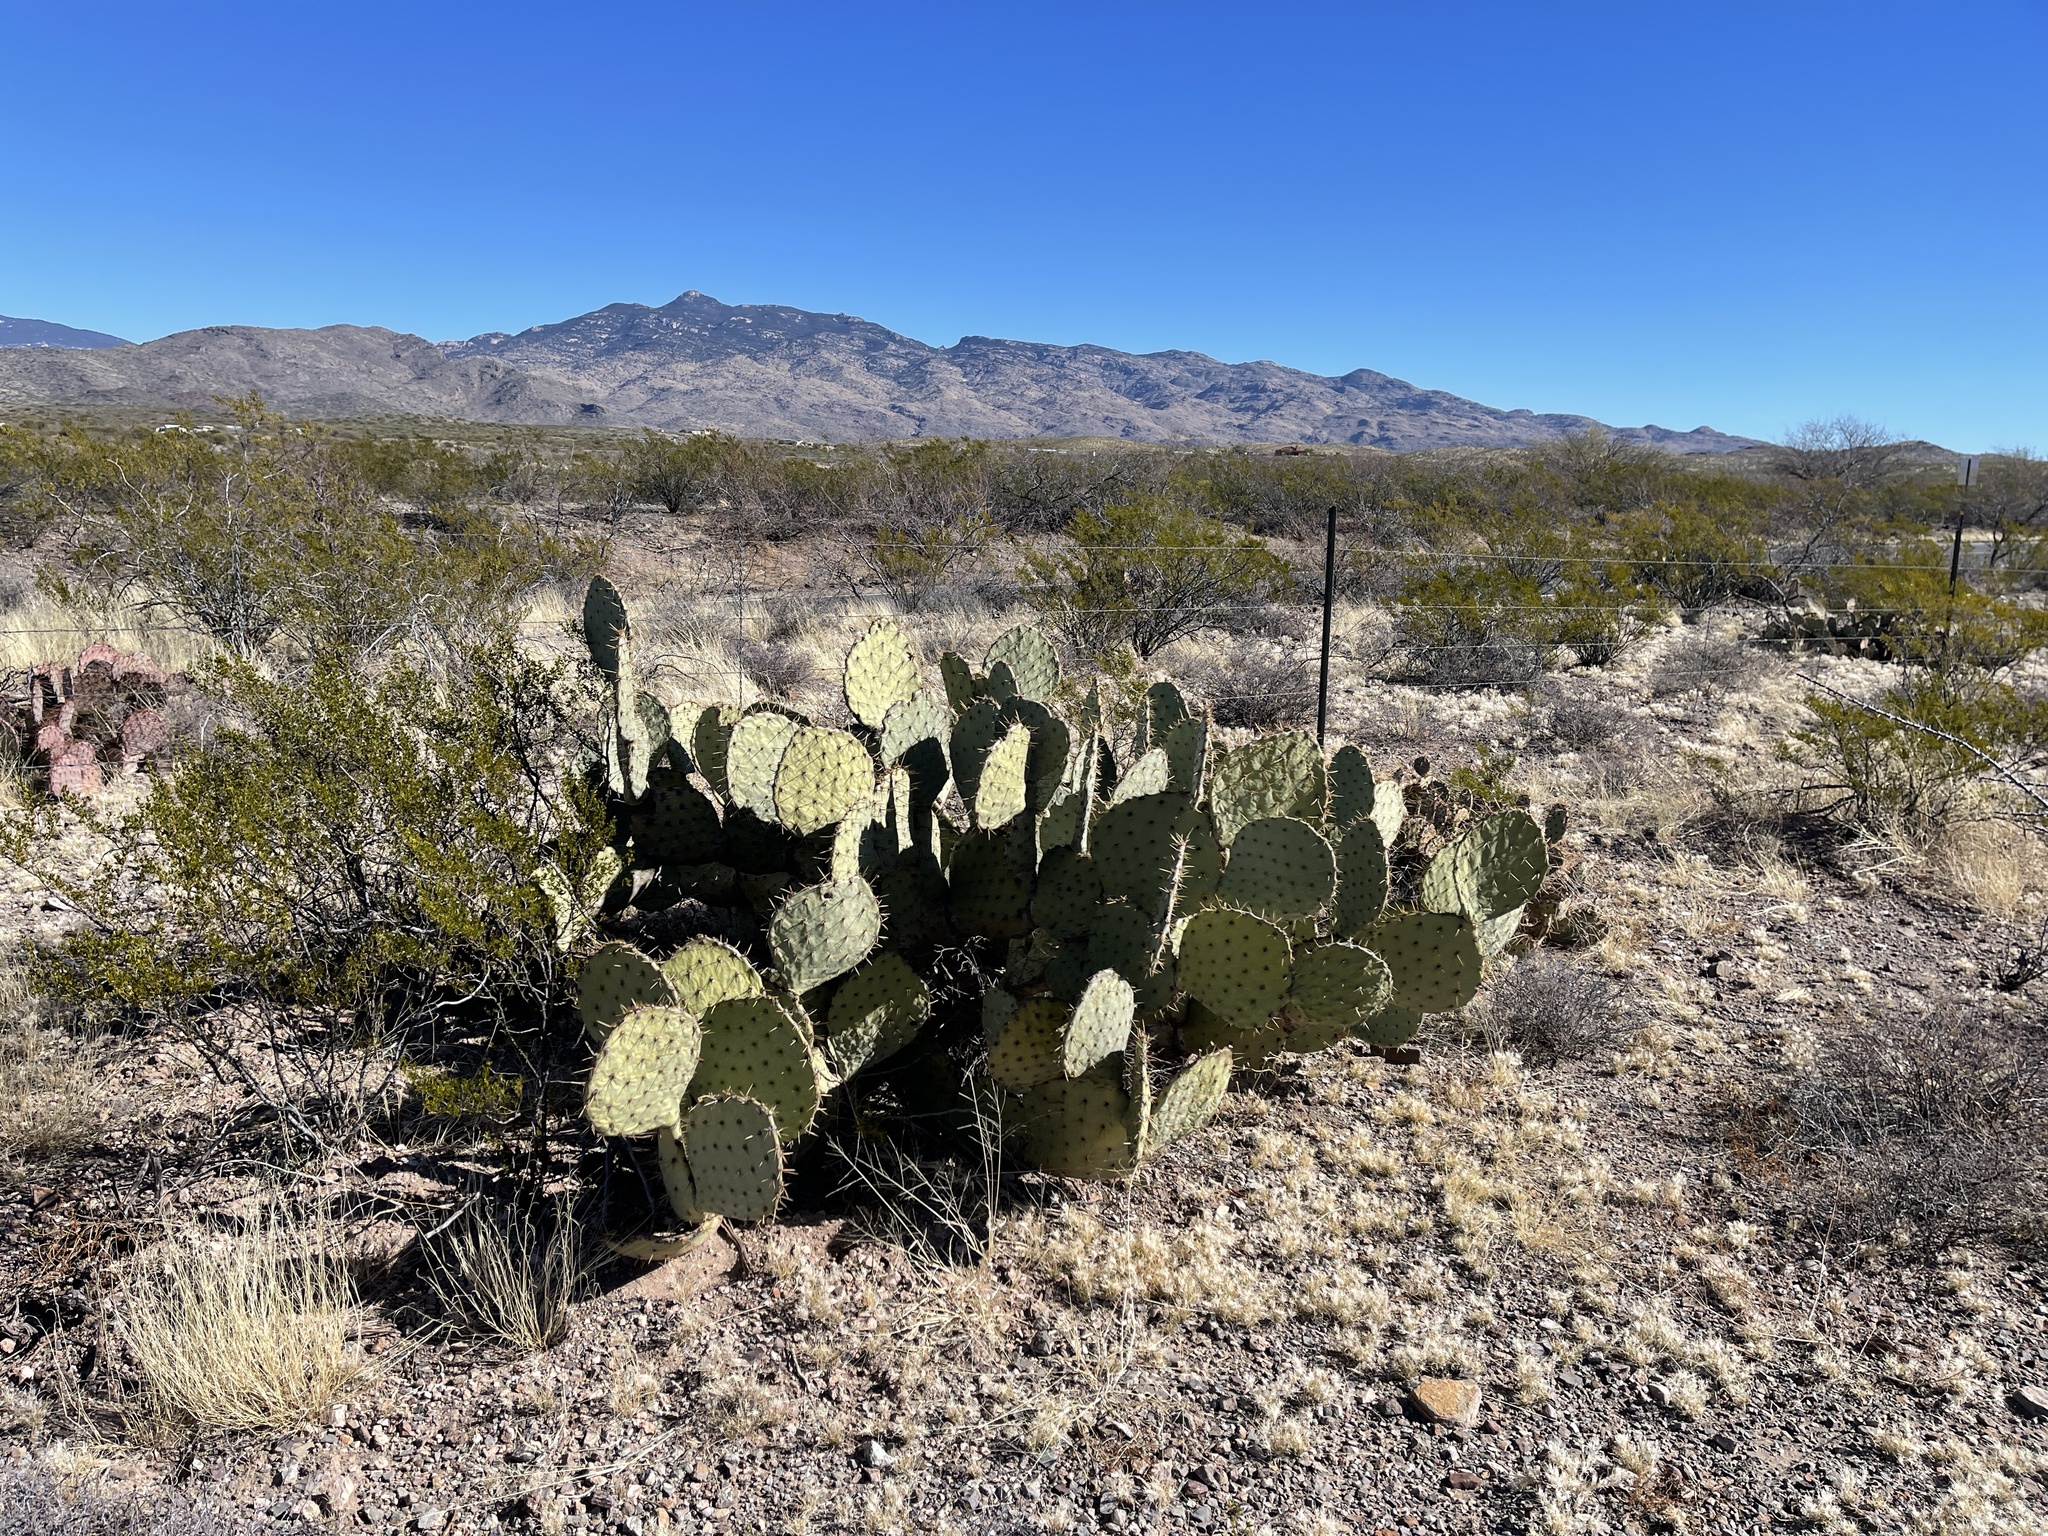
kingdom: Plantae
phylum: Tracheophyta
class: Magnoliopsida
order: Caryophyllales
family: Cactaceae
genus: Opuntia
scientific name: Opuntia engelmannii
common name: Cactus-apple
